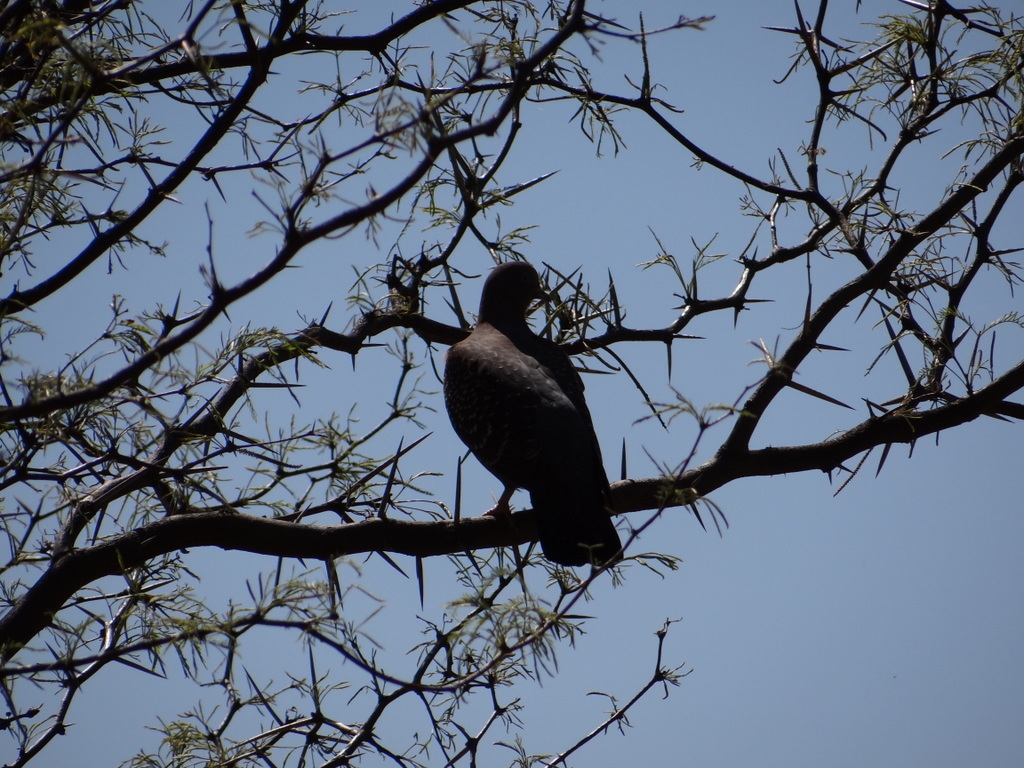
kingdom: Animalia
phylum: Chordata
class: Aves
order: Columbiformes
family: Columbidae
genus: Patagioenas
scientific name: Patagioenas maculosa
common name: Spot-winged pigeon
